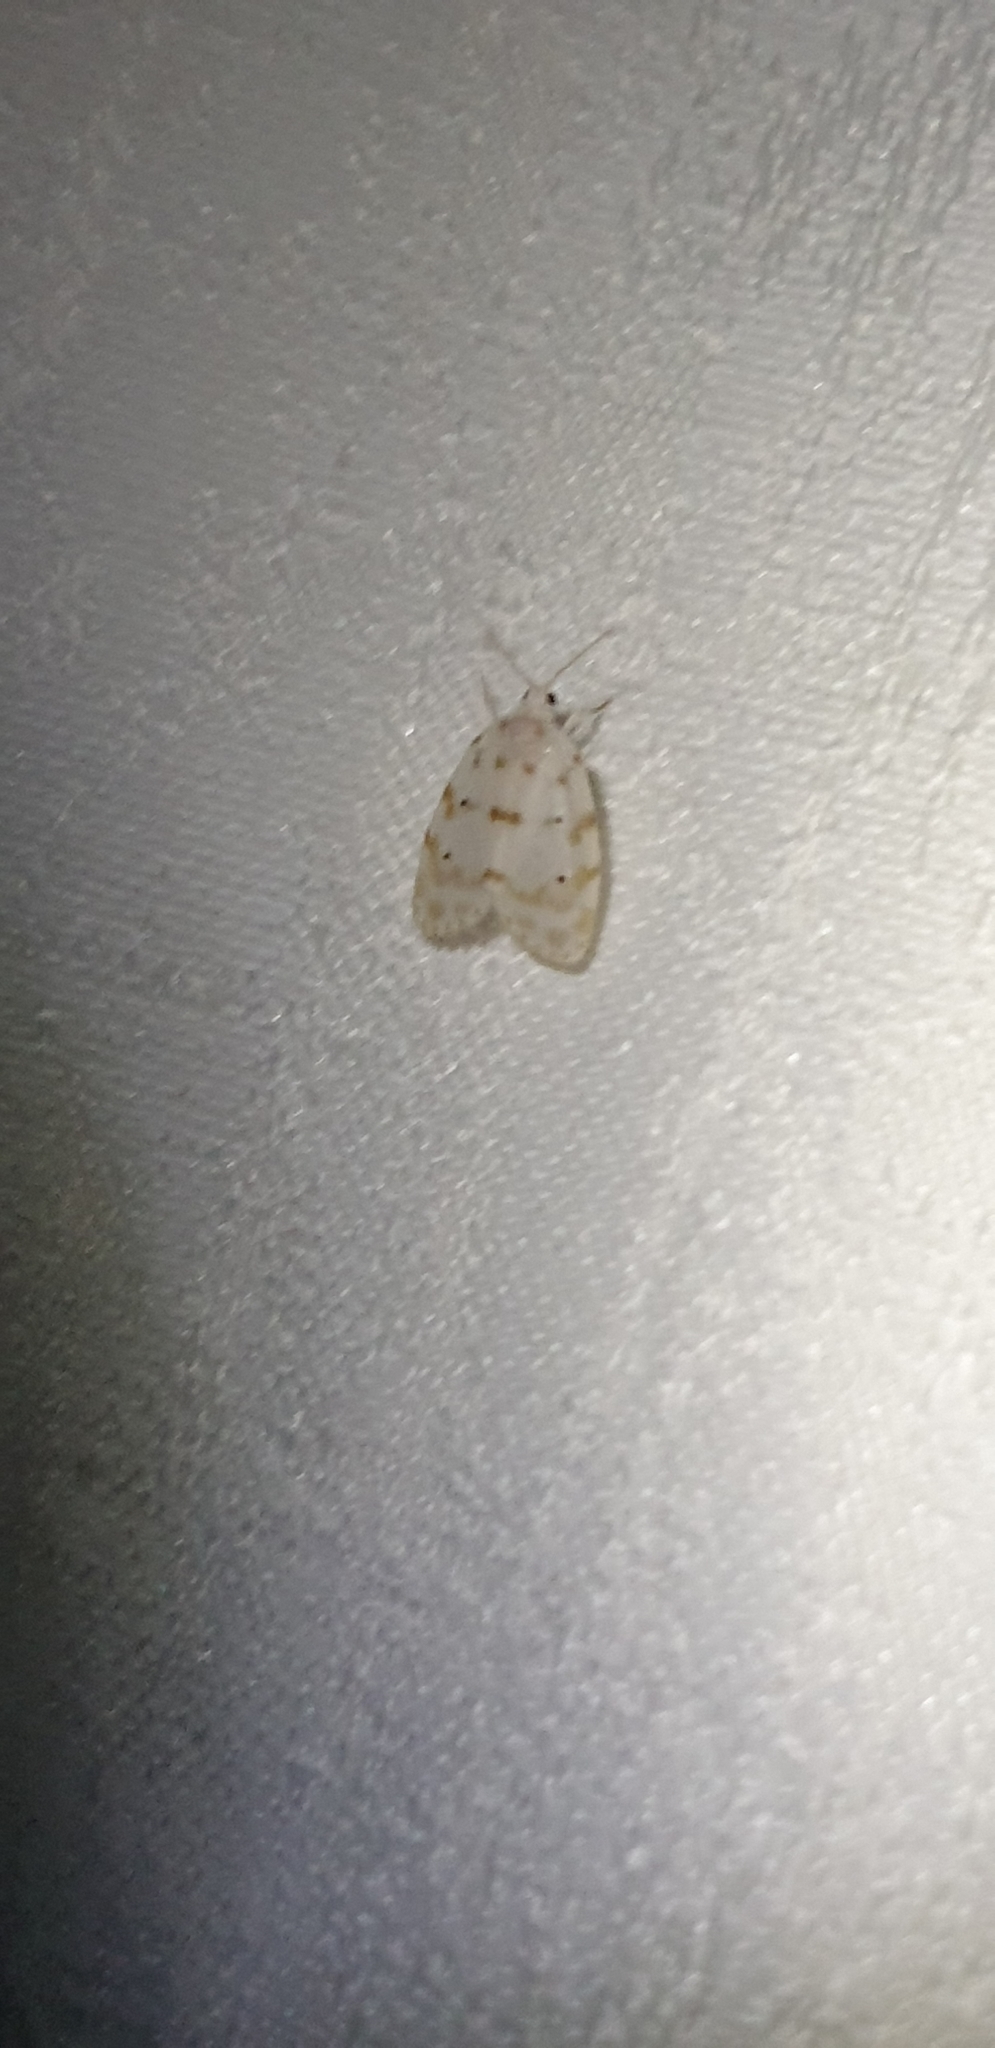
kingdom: Animalia
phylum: Arthropoda
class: Insecta
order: Lepidoptera
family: Erebidae
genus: Schistophleps
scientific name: Schistophleps albida
